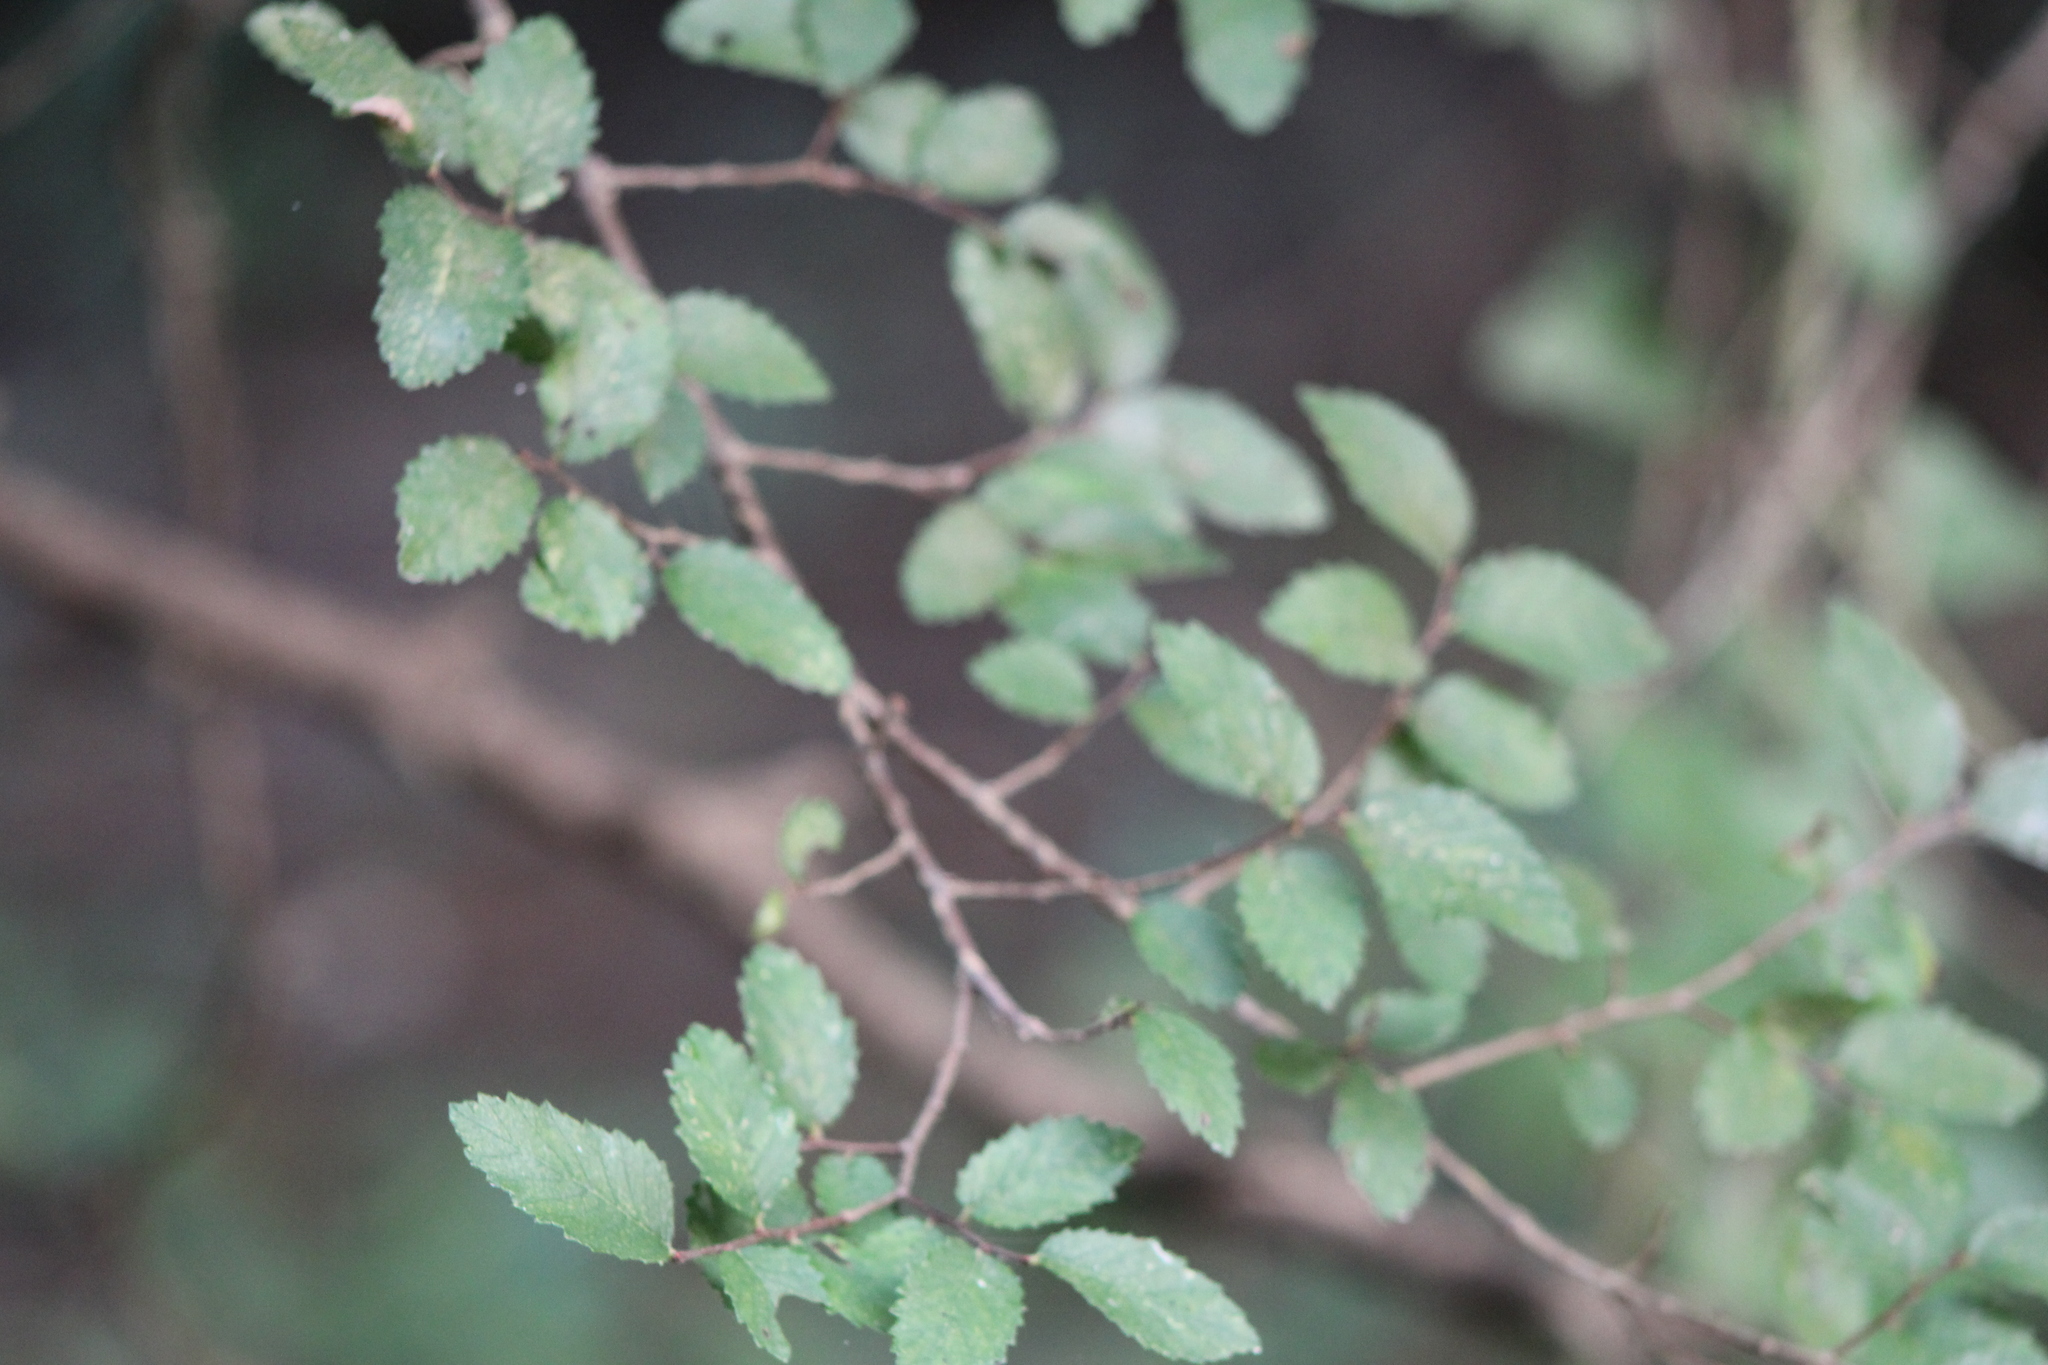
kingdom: Plantae
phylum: Tracheophyta
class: Magnoliopsida
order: Rosales
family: Ulmaceae
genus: Ulmus
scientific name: Ulmus crassifolia
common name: Basket elm
